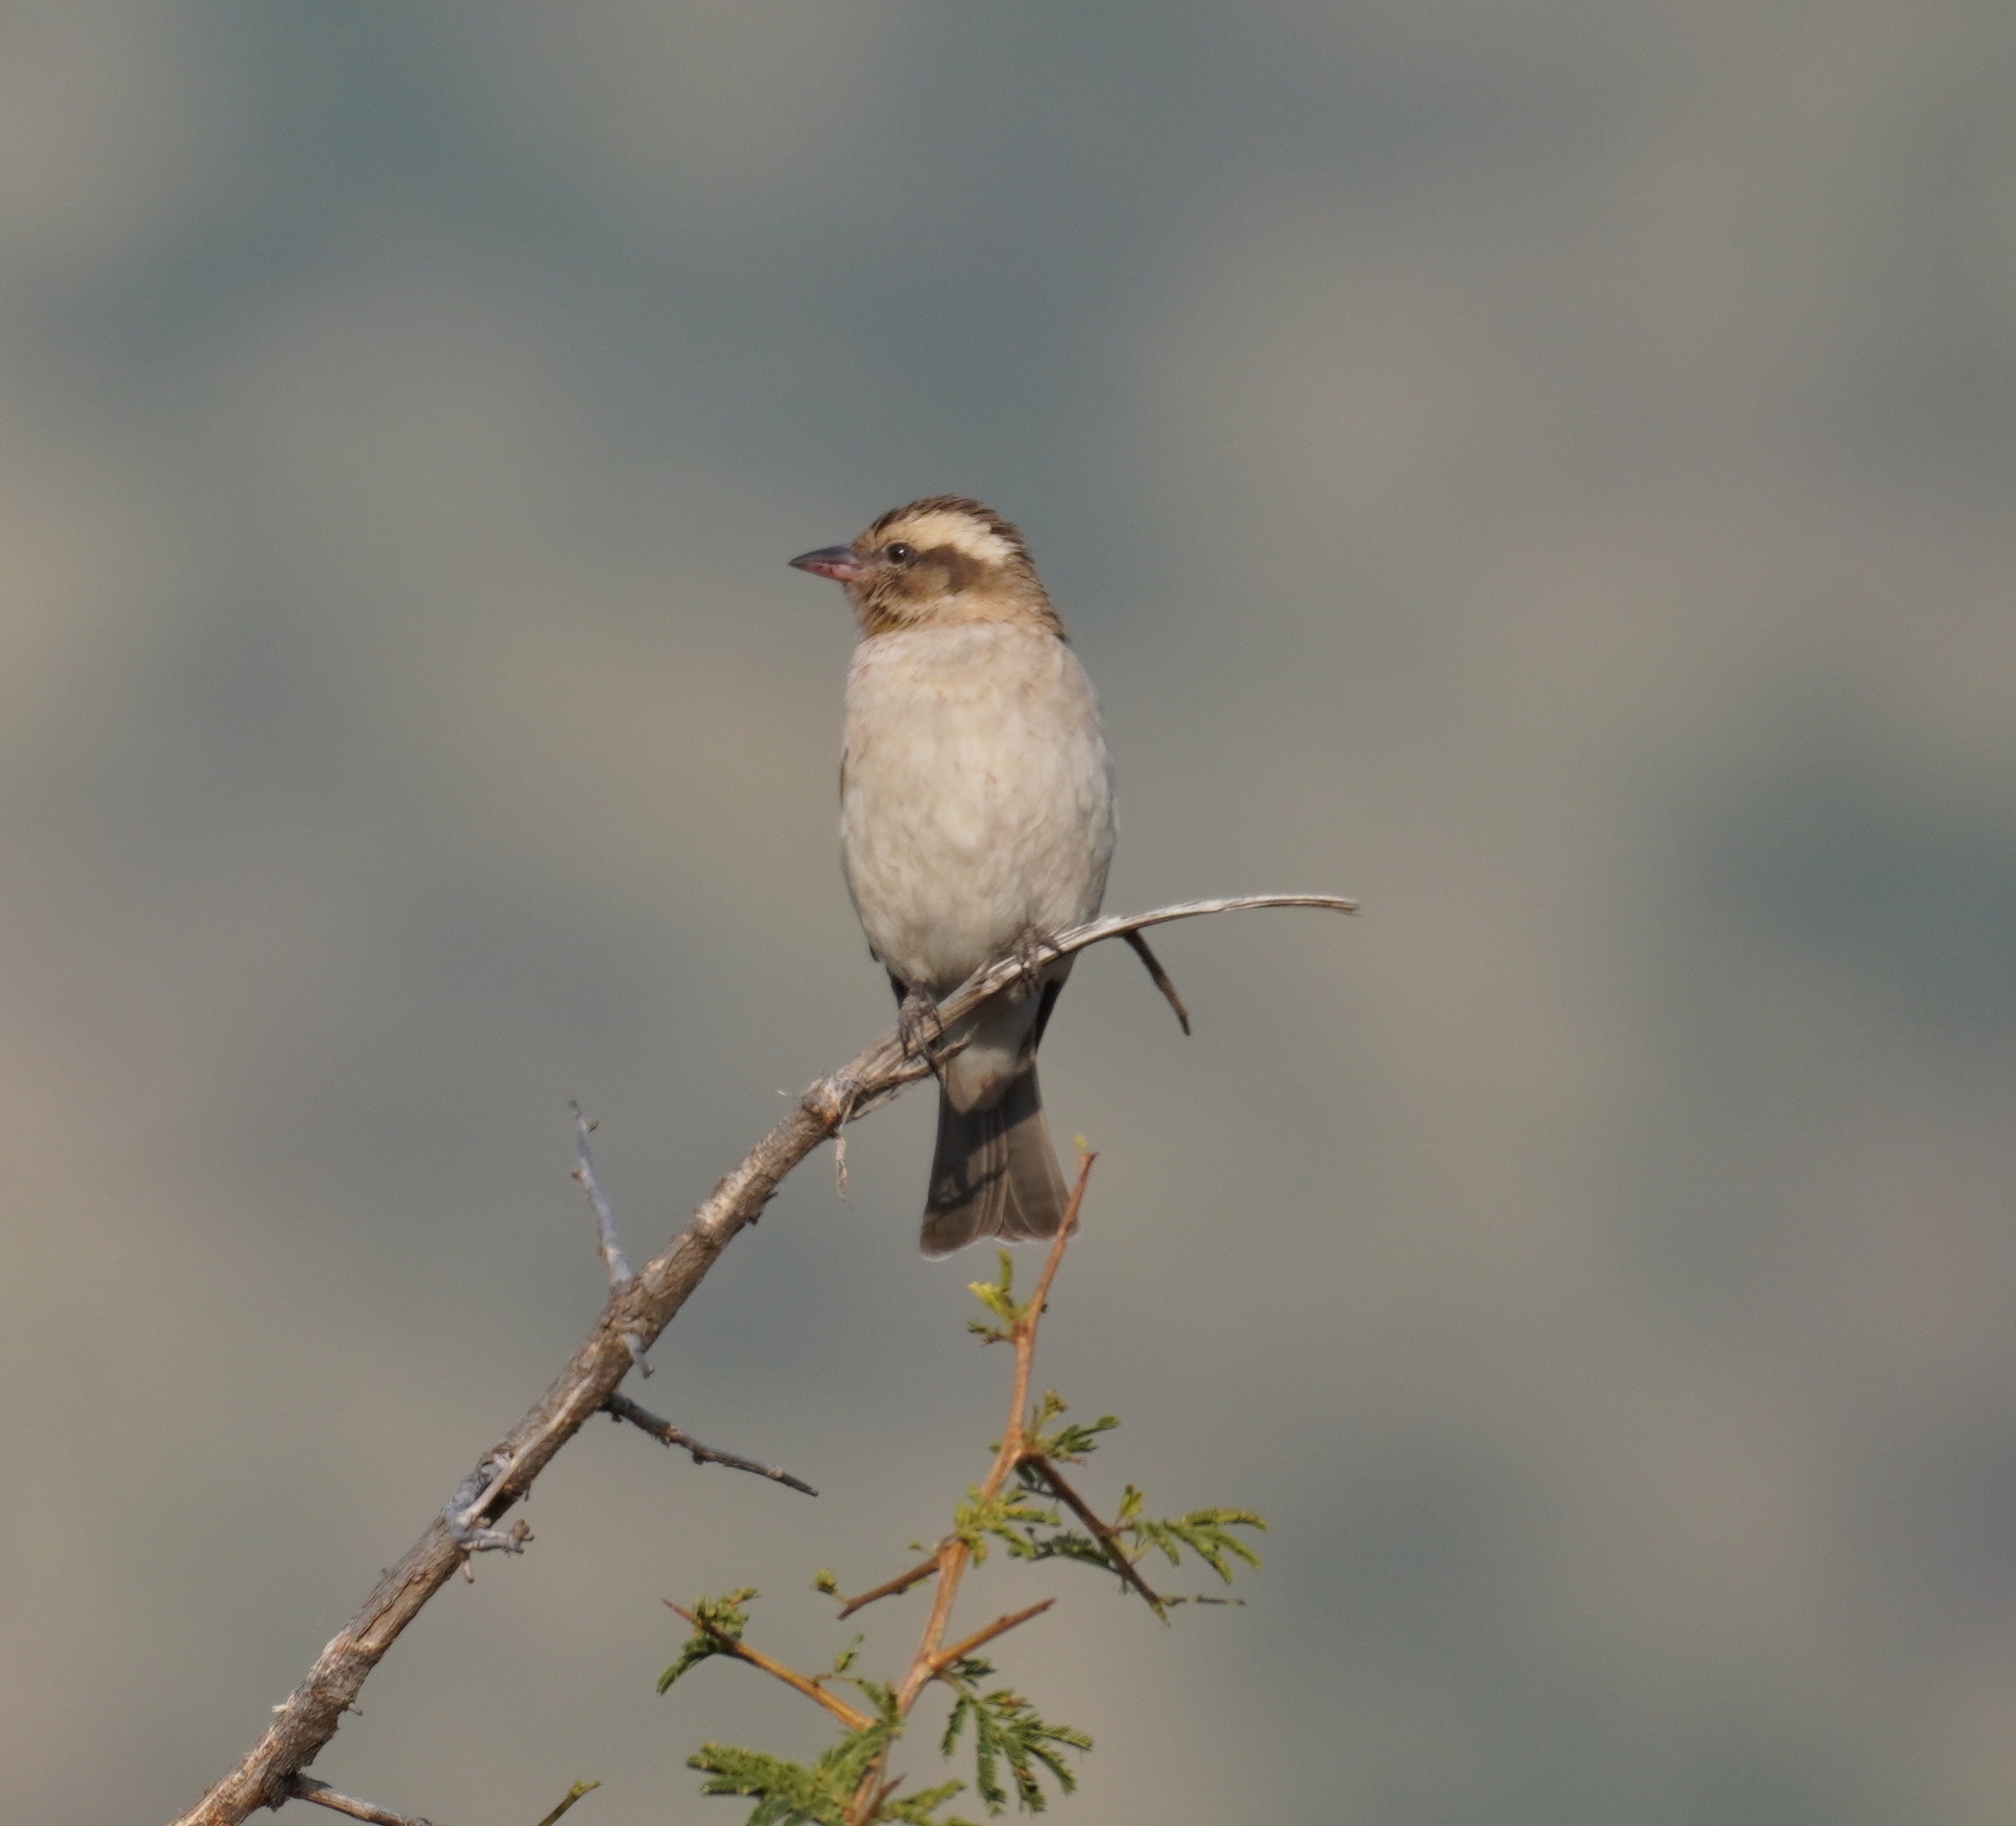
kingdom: Animalia
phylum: Chordata
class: Aves
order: Passeriformes
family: Passeridae
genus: Gymnoris
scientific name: Gymnoris superciliaris
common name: Yellow-throated petronia
